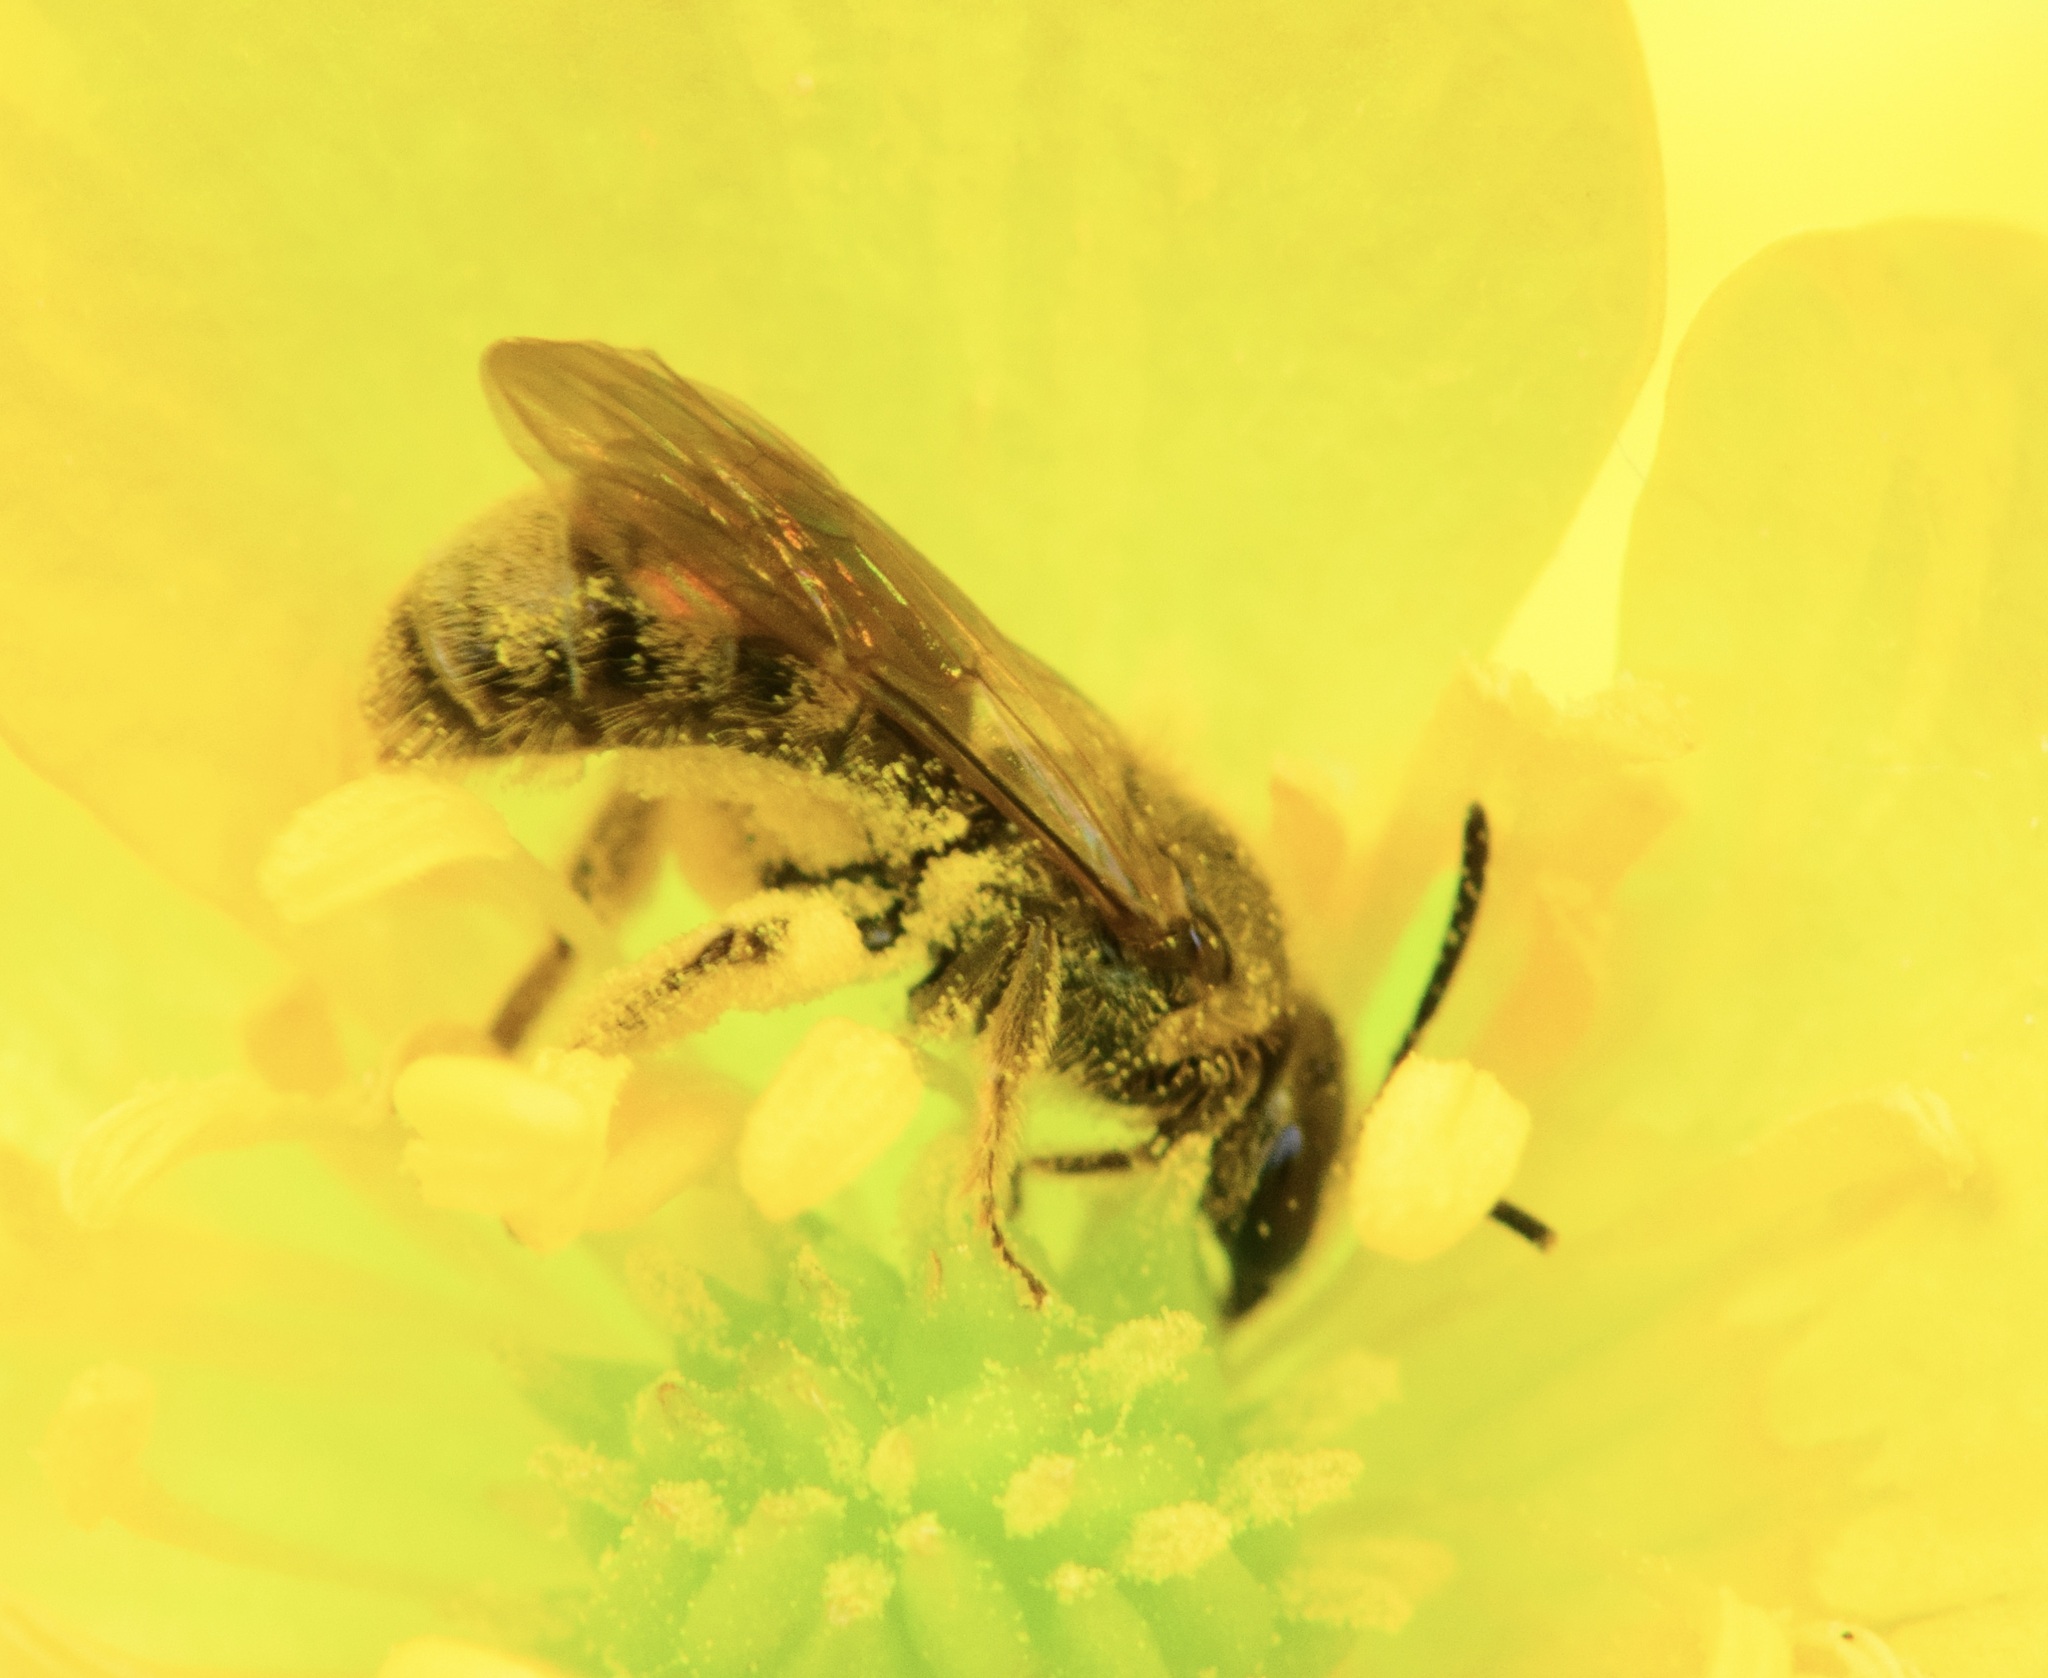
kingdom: Animalia
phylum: Arthropoda
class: Insecta
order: Hymenoptera
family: Halictidae
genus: Lasioglossum
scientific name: Lasioglossum cressonii
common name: Cresson's dialictus
